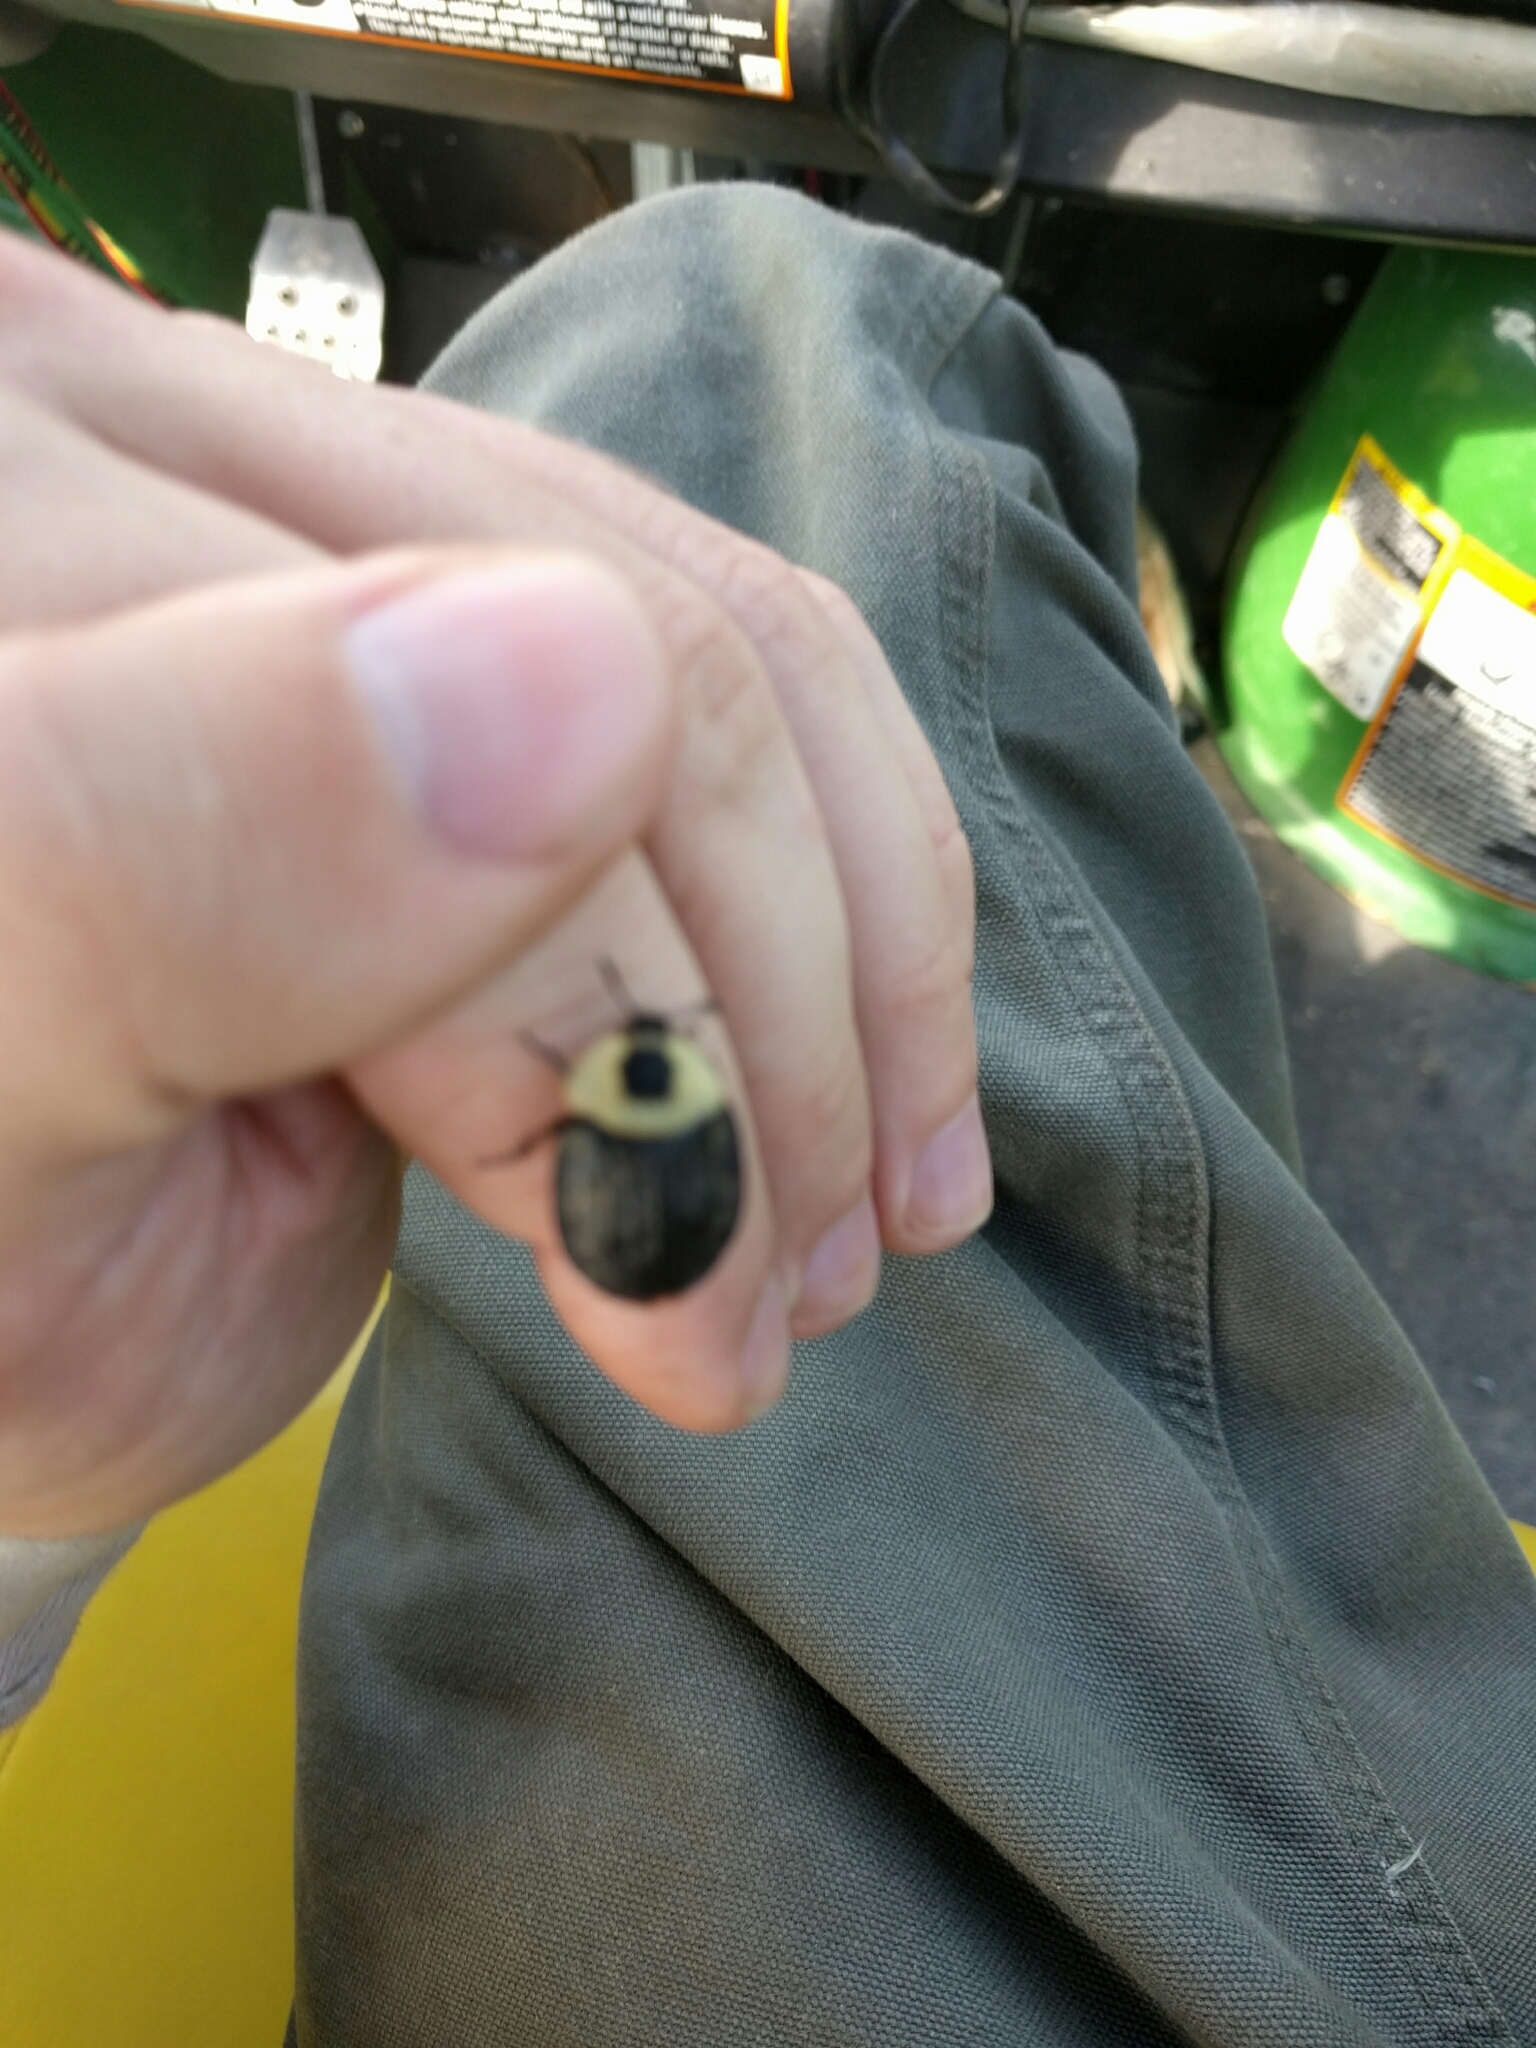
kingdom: Animalia
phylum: Arthropoda
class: Insecta
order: Coleoptera
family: Staphylinidae
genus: Necrophila
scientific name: Necrophila americana
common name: American carrion beetle
